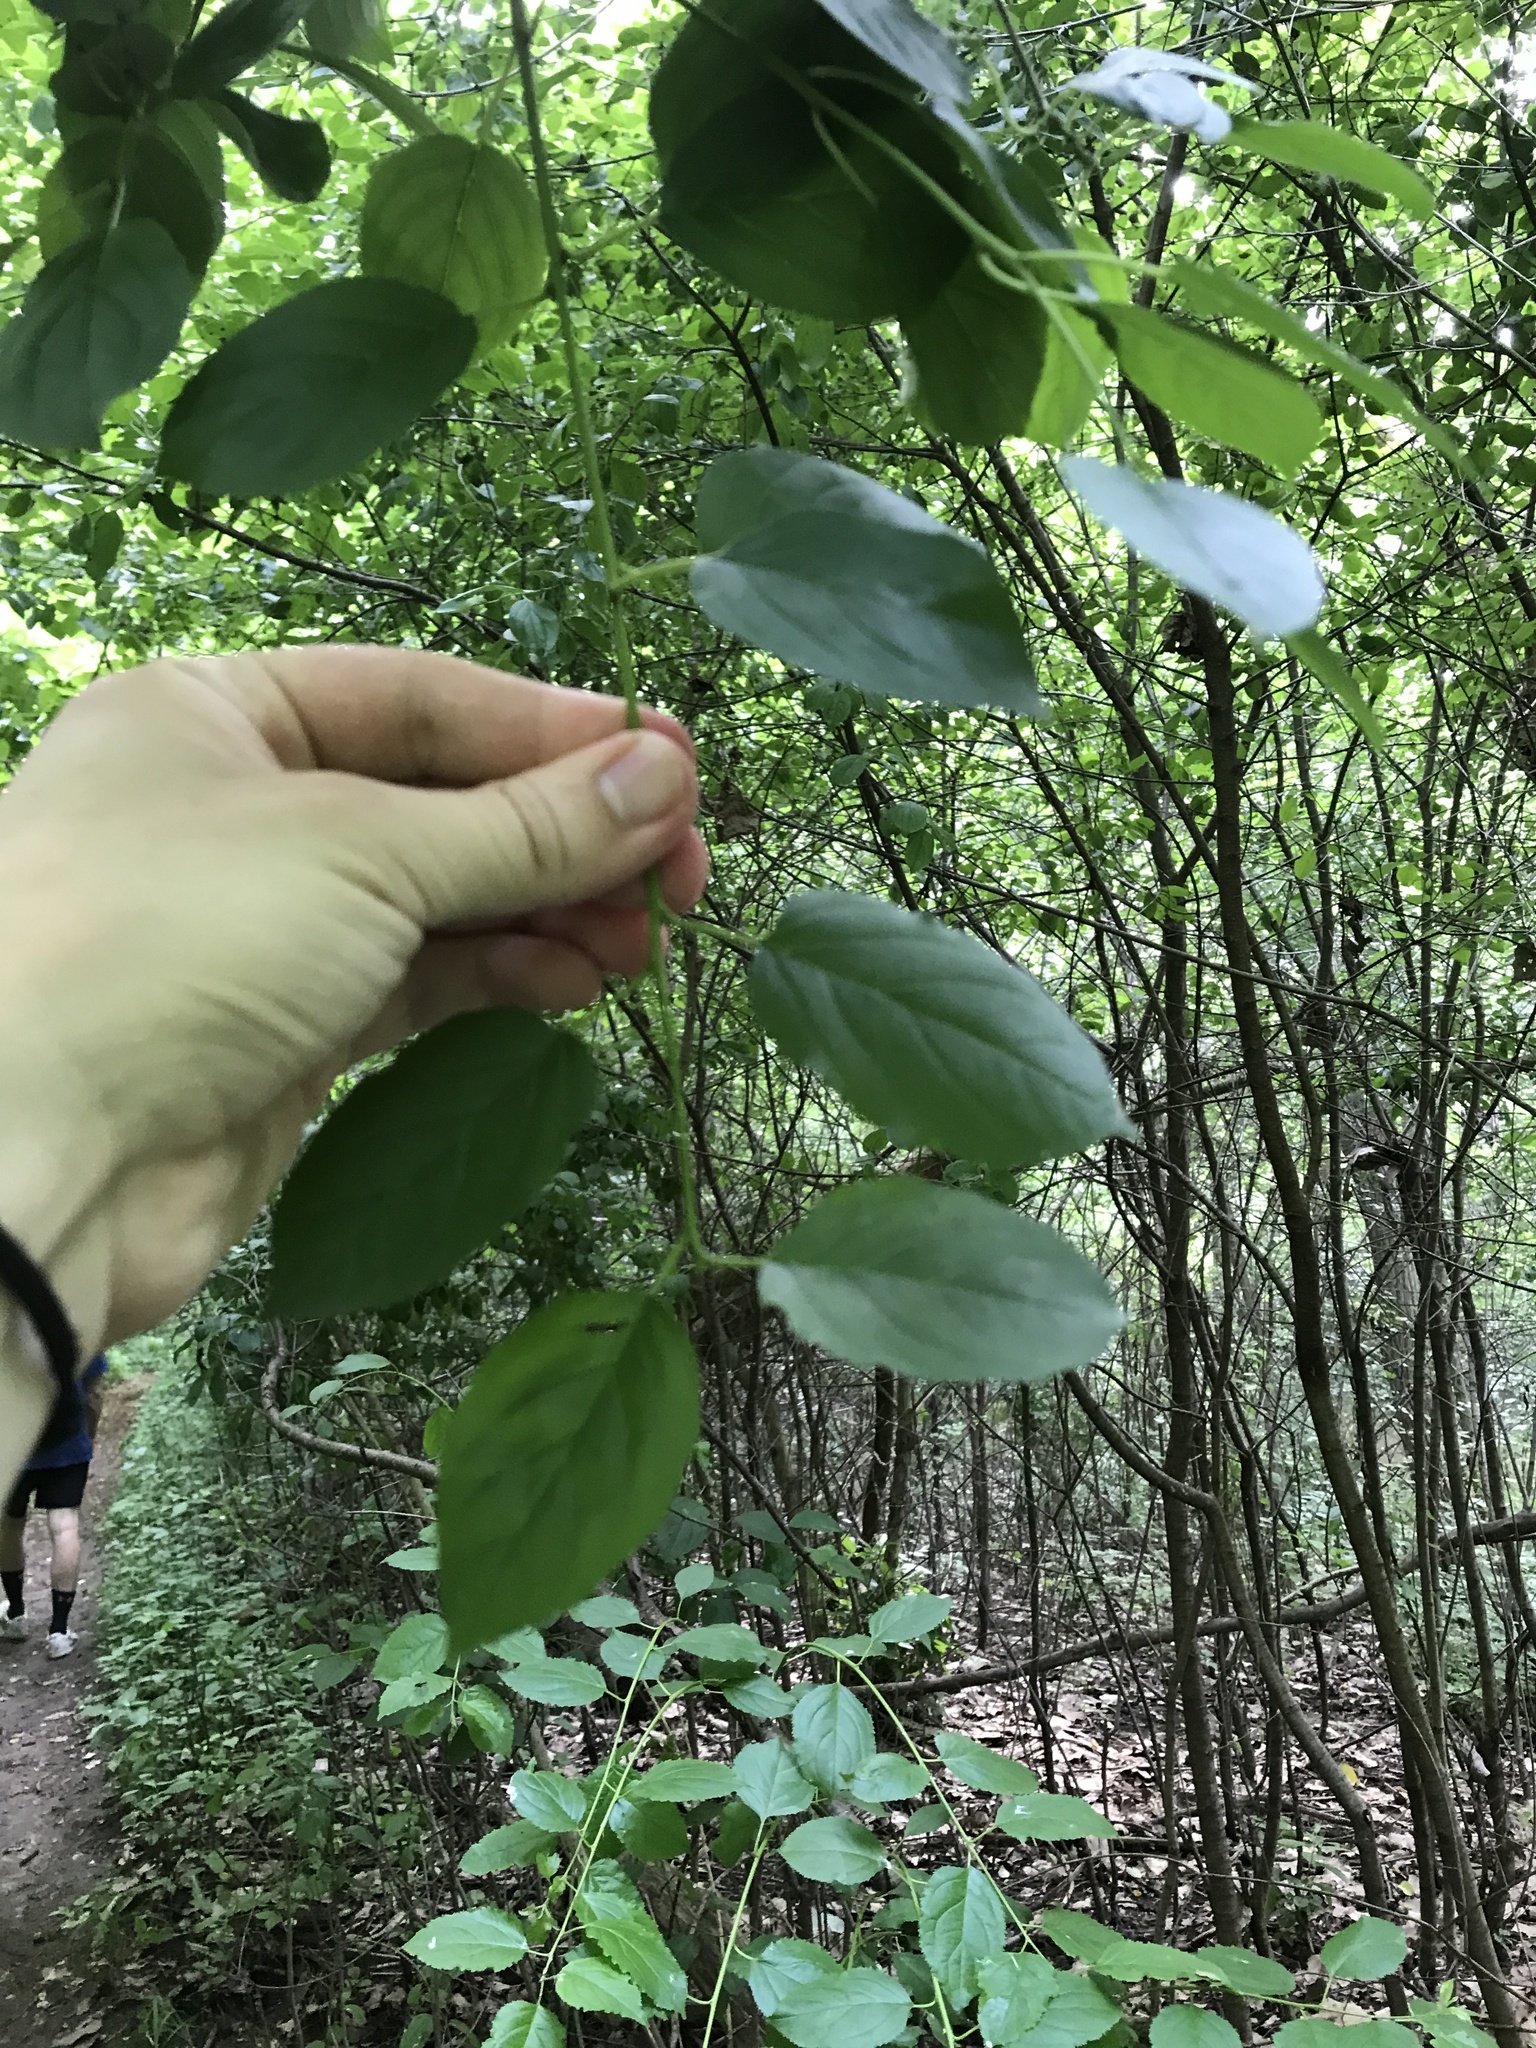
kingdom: Plantae
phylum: Tracheophyta
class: Magnoliopsida
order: Rosales
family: Rhamnaceae
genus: Rhamnus
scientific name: Rhamnus cathartica
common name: Common buckthorn
